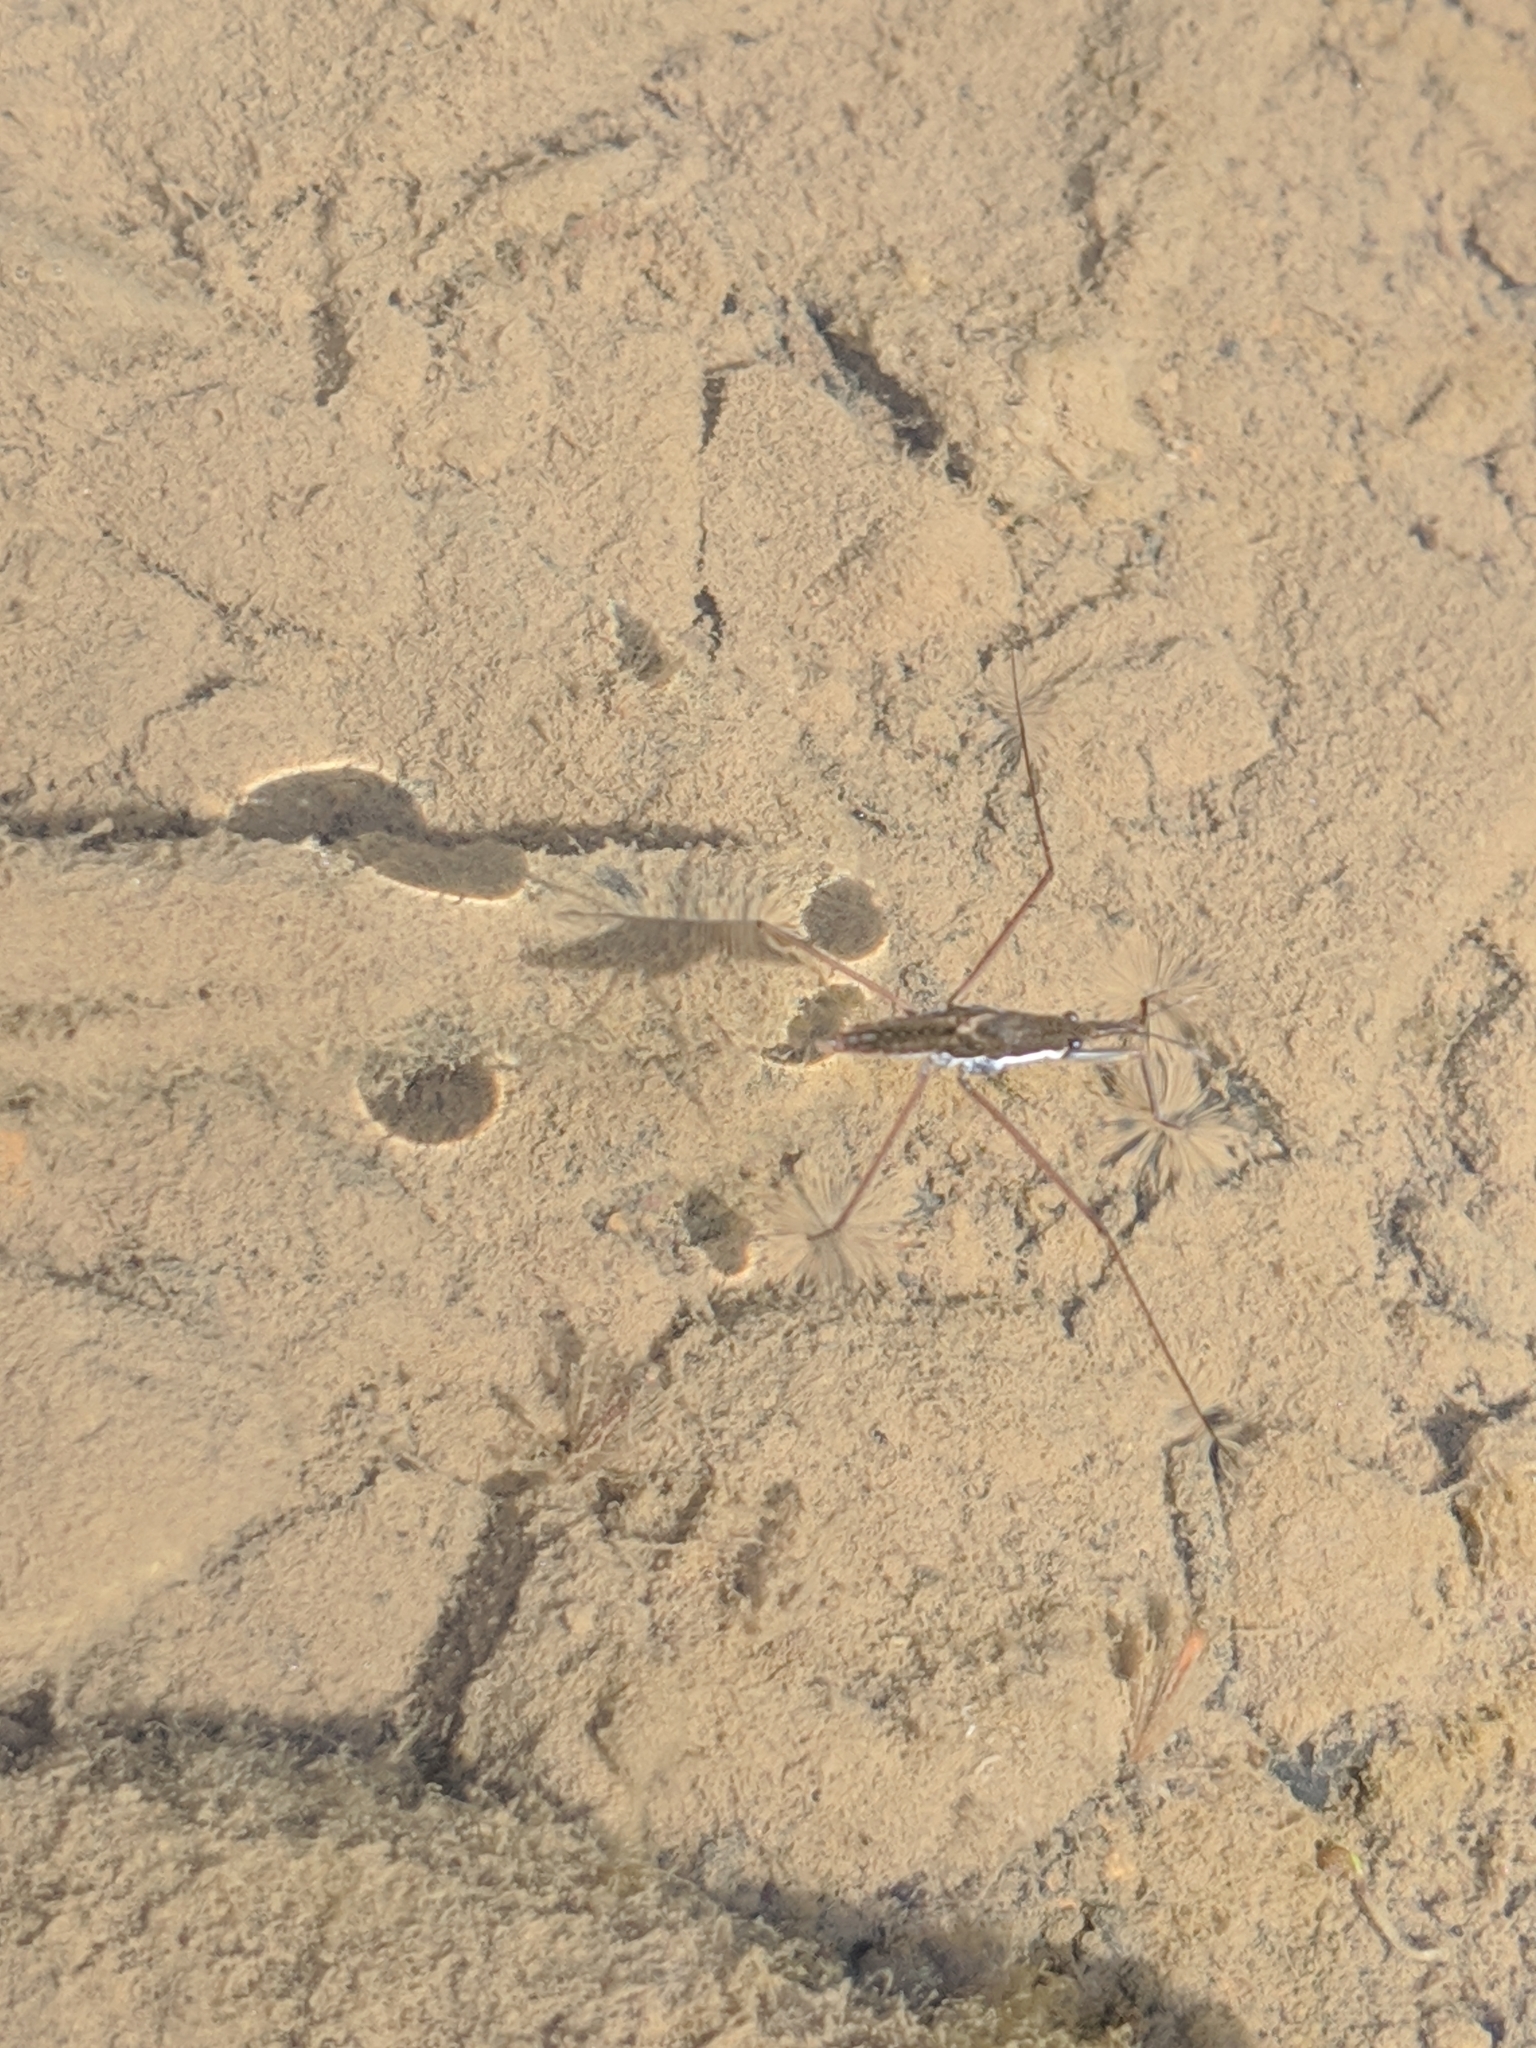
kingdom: Animalia
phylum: Arthropoda
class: Insecta
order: Hemiptera
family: Gerridae
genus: Aquarius
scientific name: Aquarius
